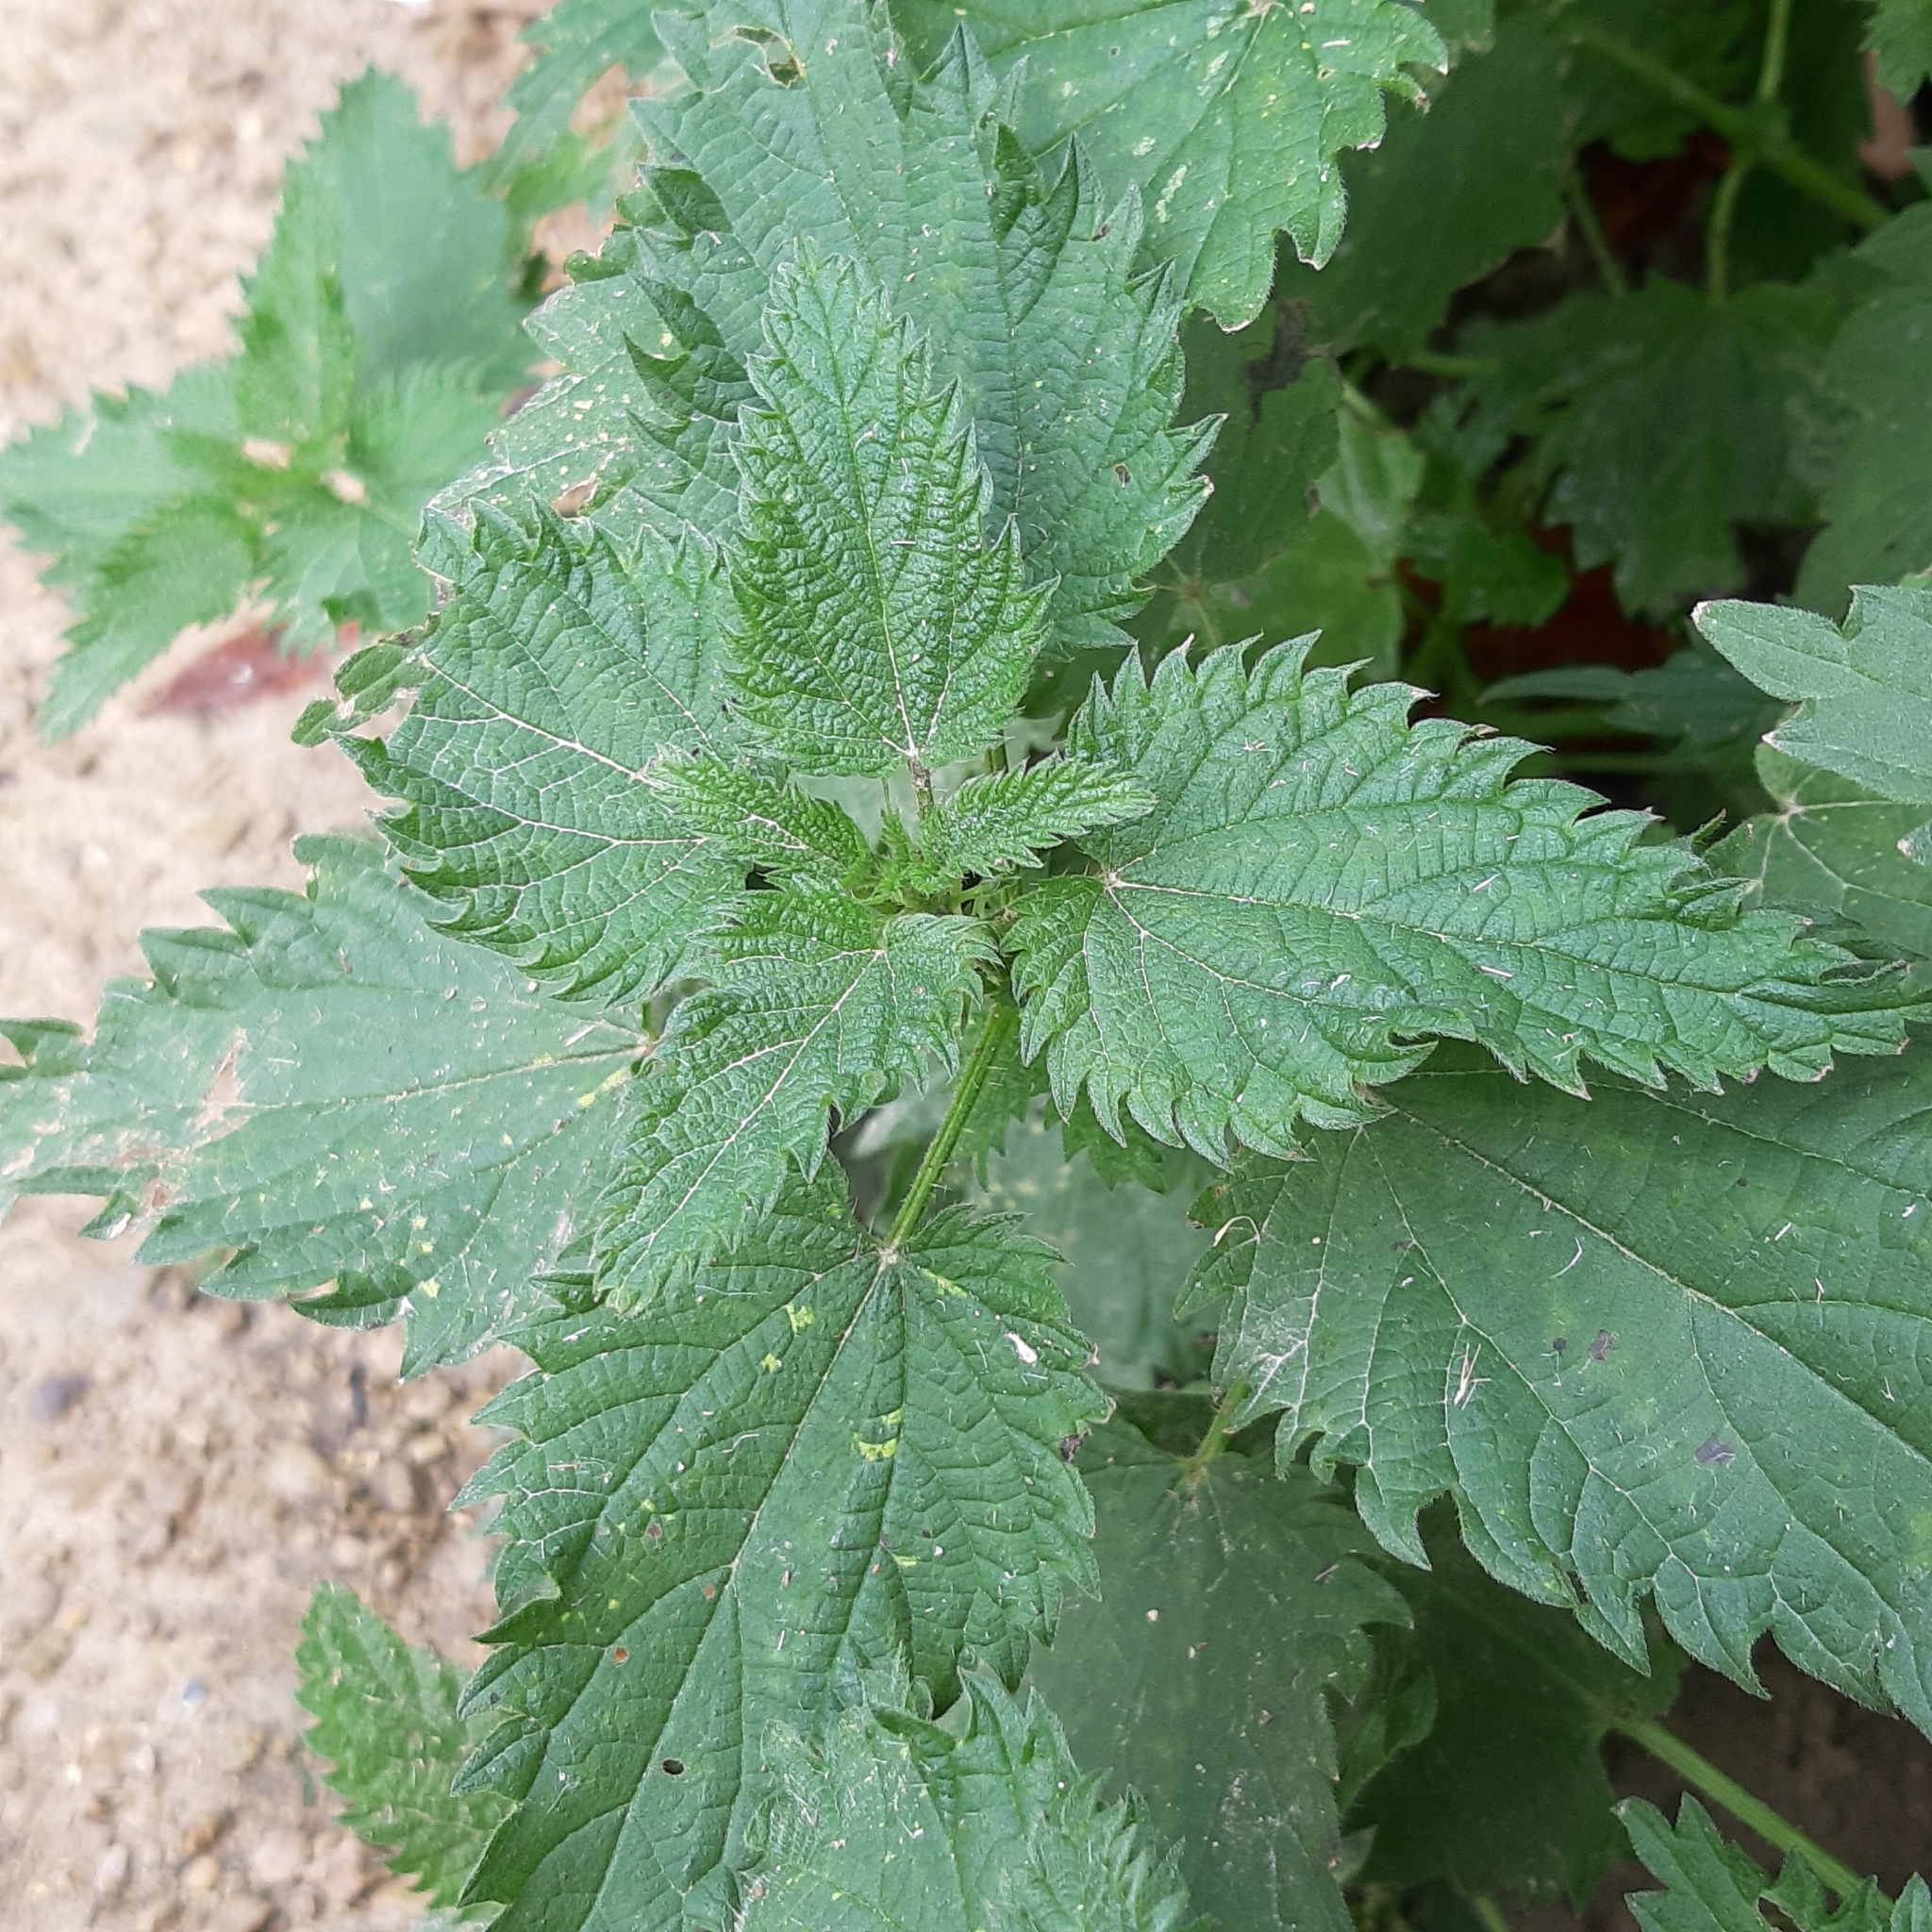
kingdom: Plantae
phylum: Tracheophyta
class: Magnoliopsida
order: Rosales
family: Urticaceae
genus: Urtica
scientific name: Urtica dioica
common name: Common nettle
